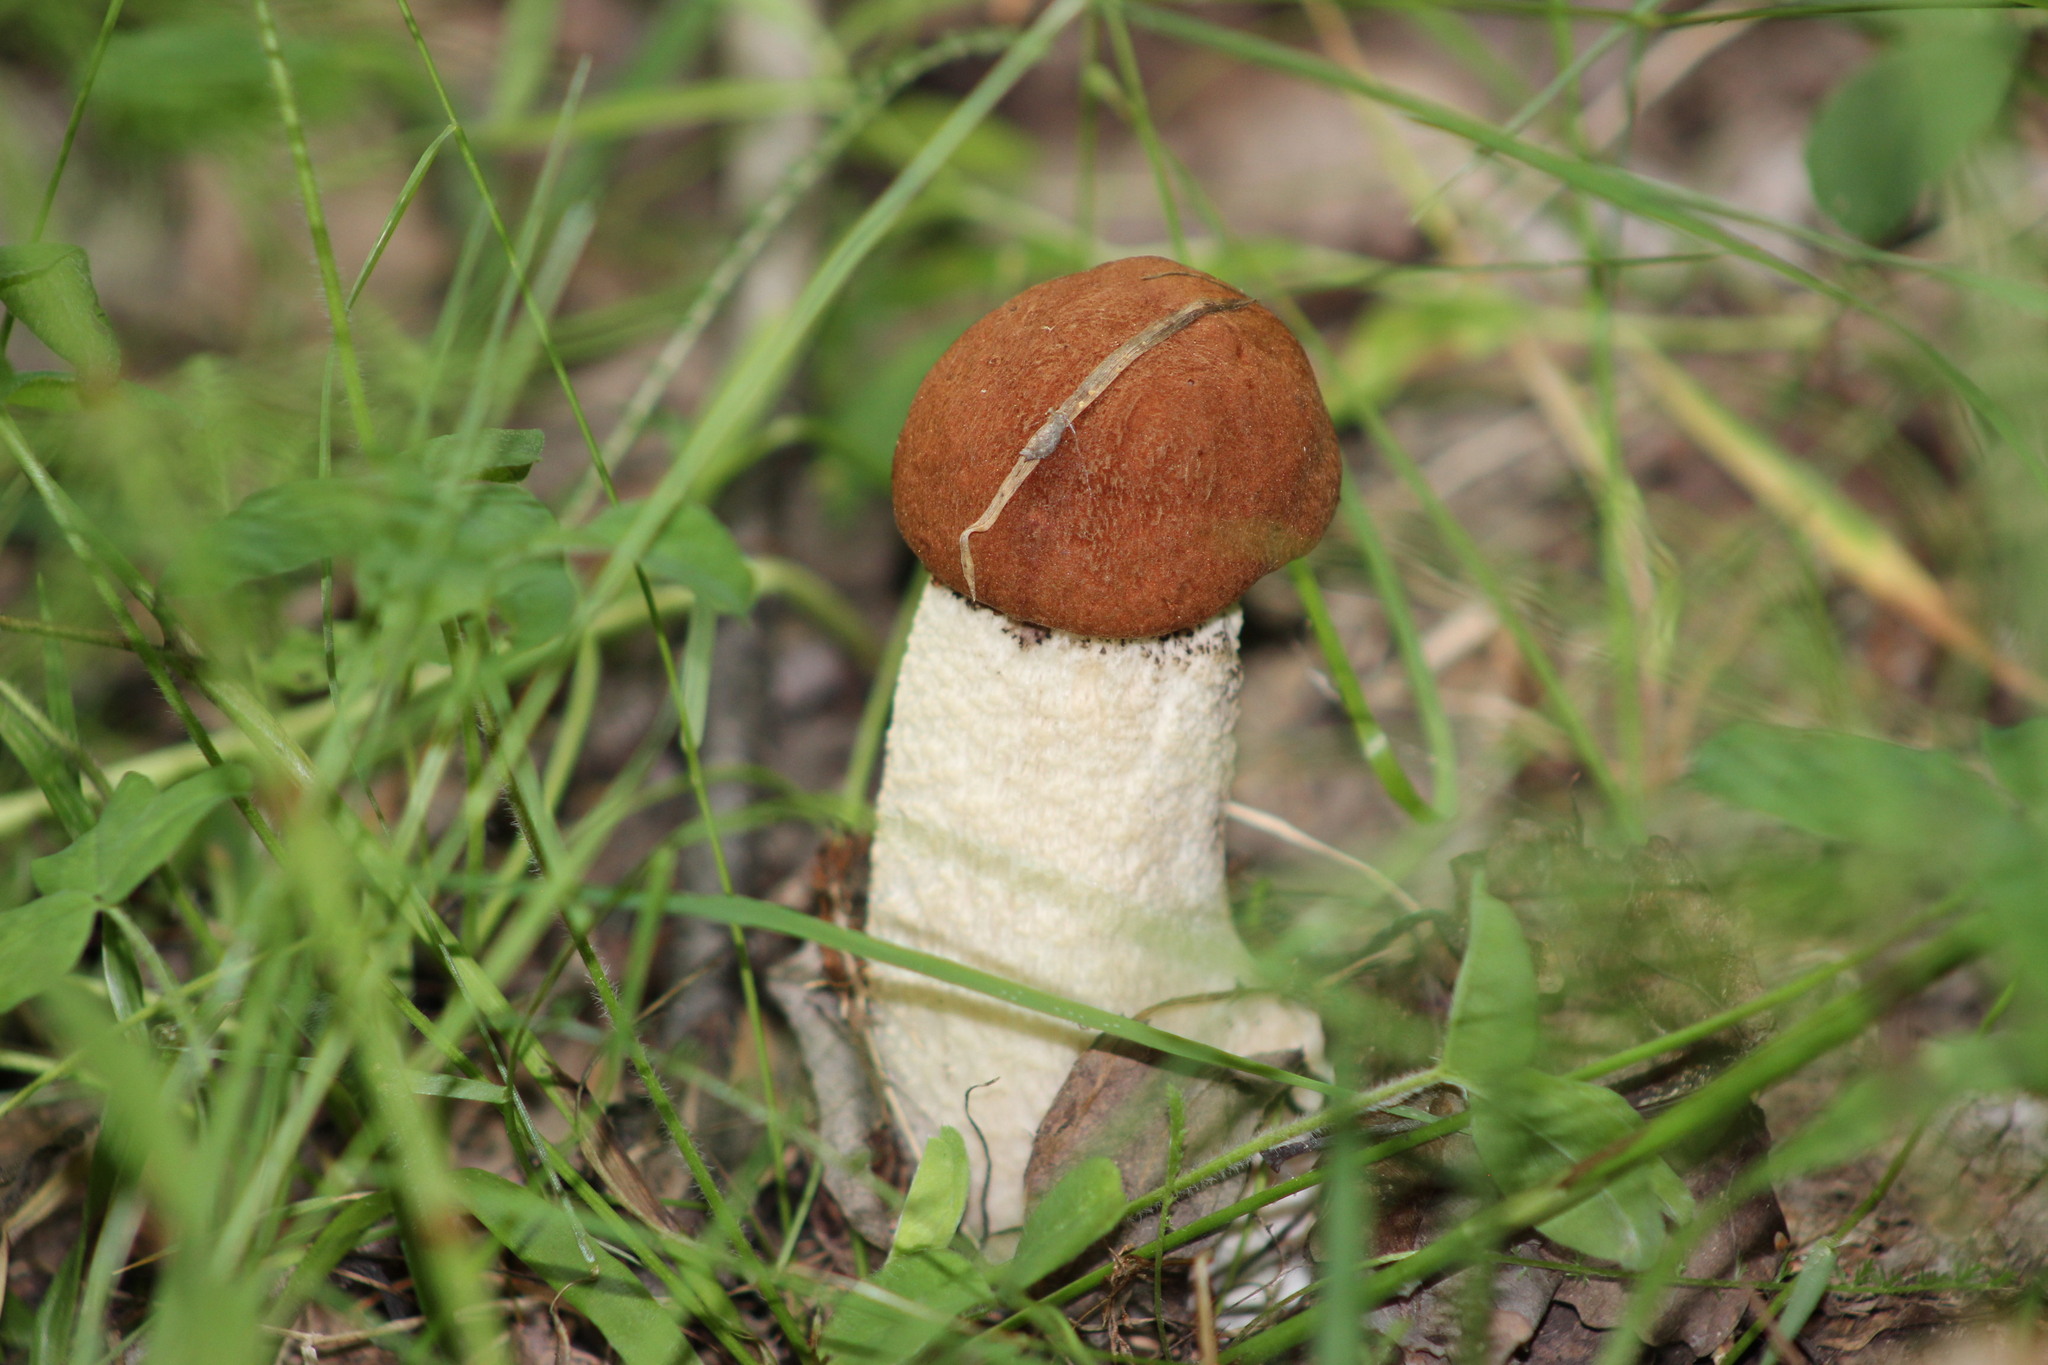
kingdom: Fungi
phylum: Basidiomycota
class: Agaricomycetes
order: Boletales
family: Boletaceae
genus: Leccinum
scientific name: Leccinum albostipitatum
